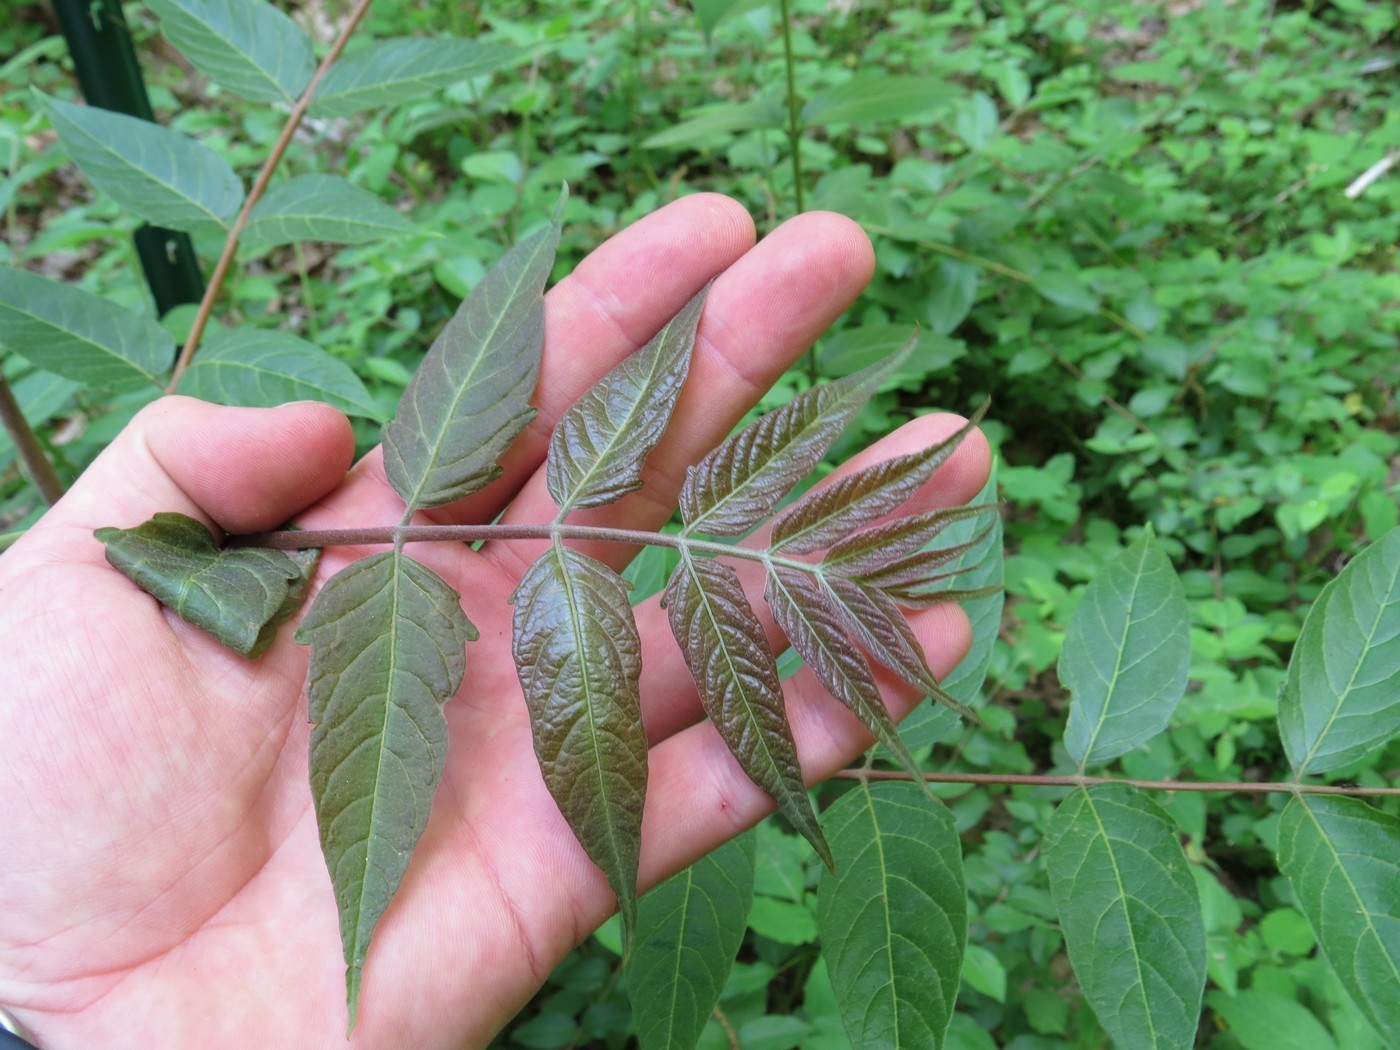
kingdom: Plantae
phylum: Tracheophyta
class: Magnoliopsida
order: Sapindales
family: Simaroubaceae
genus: Ailanthus
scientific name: Ailanthus altissima
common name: Tree-of-heaven
